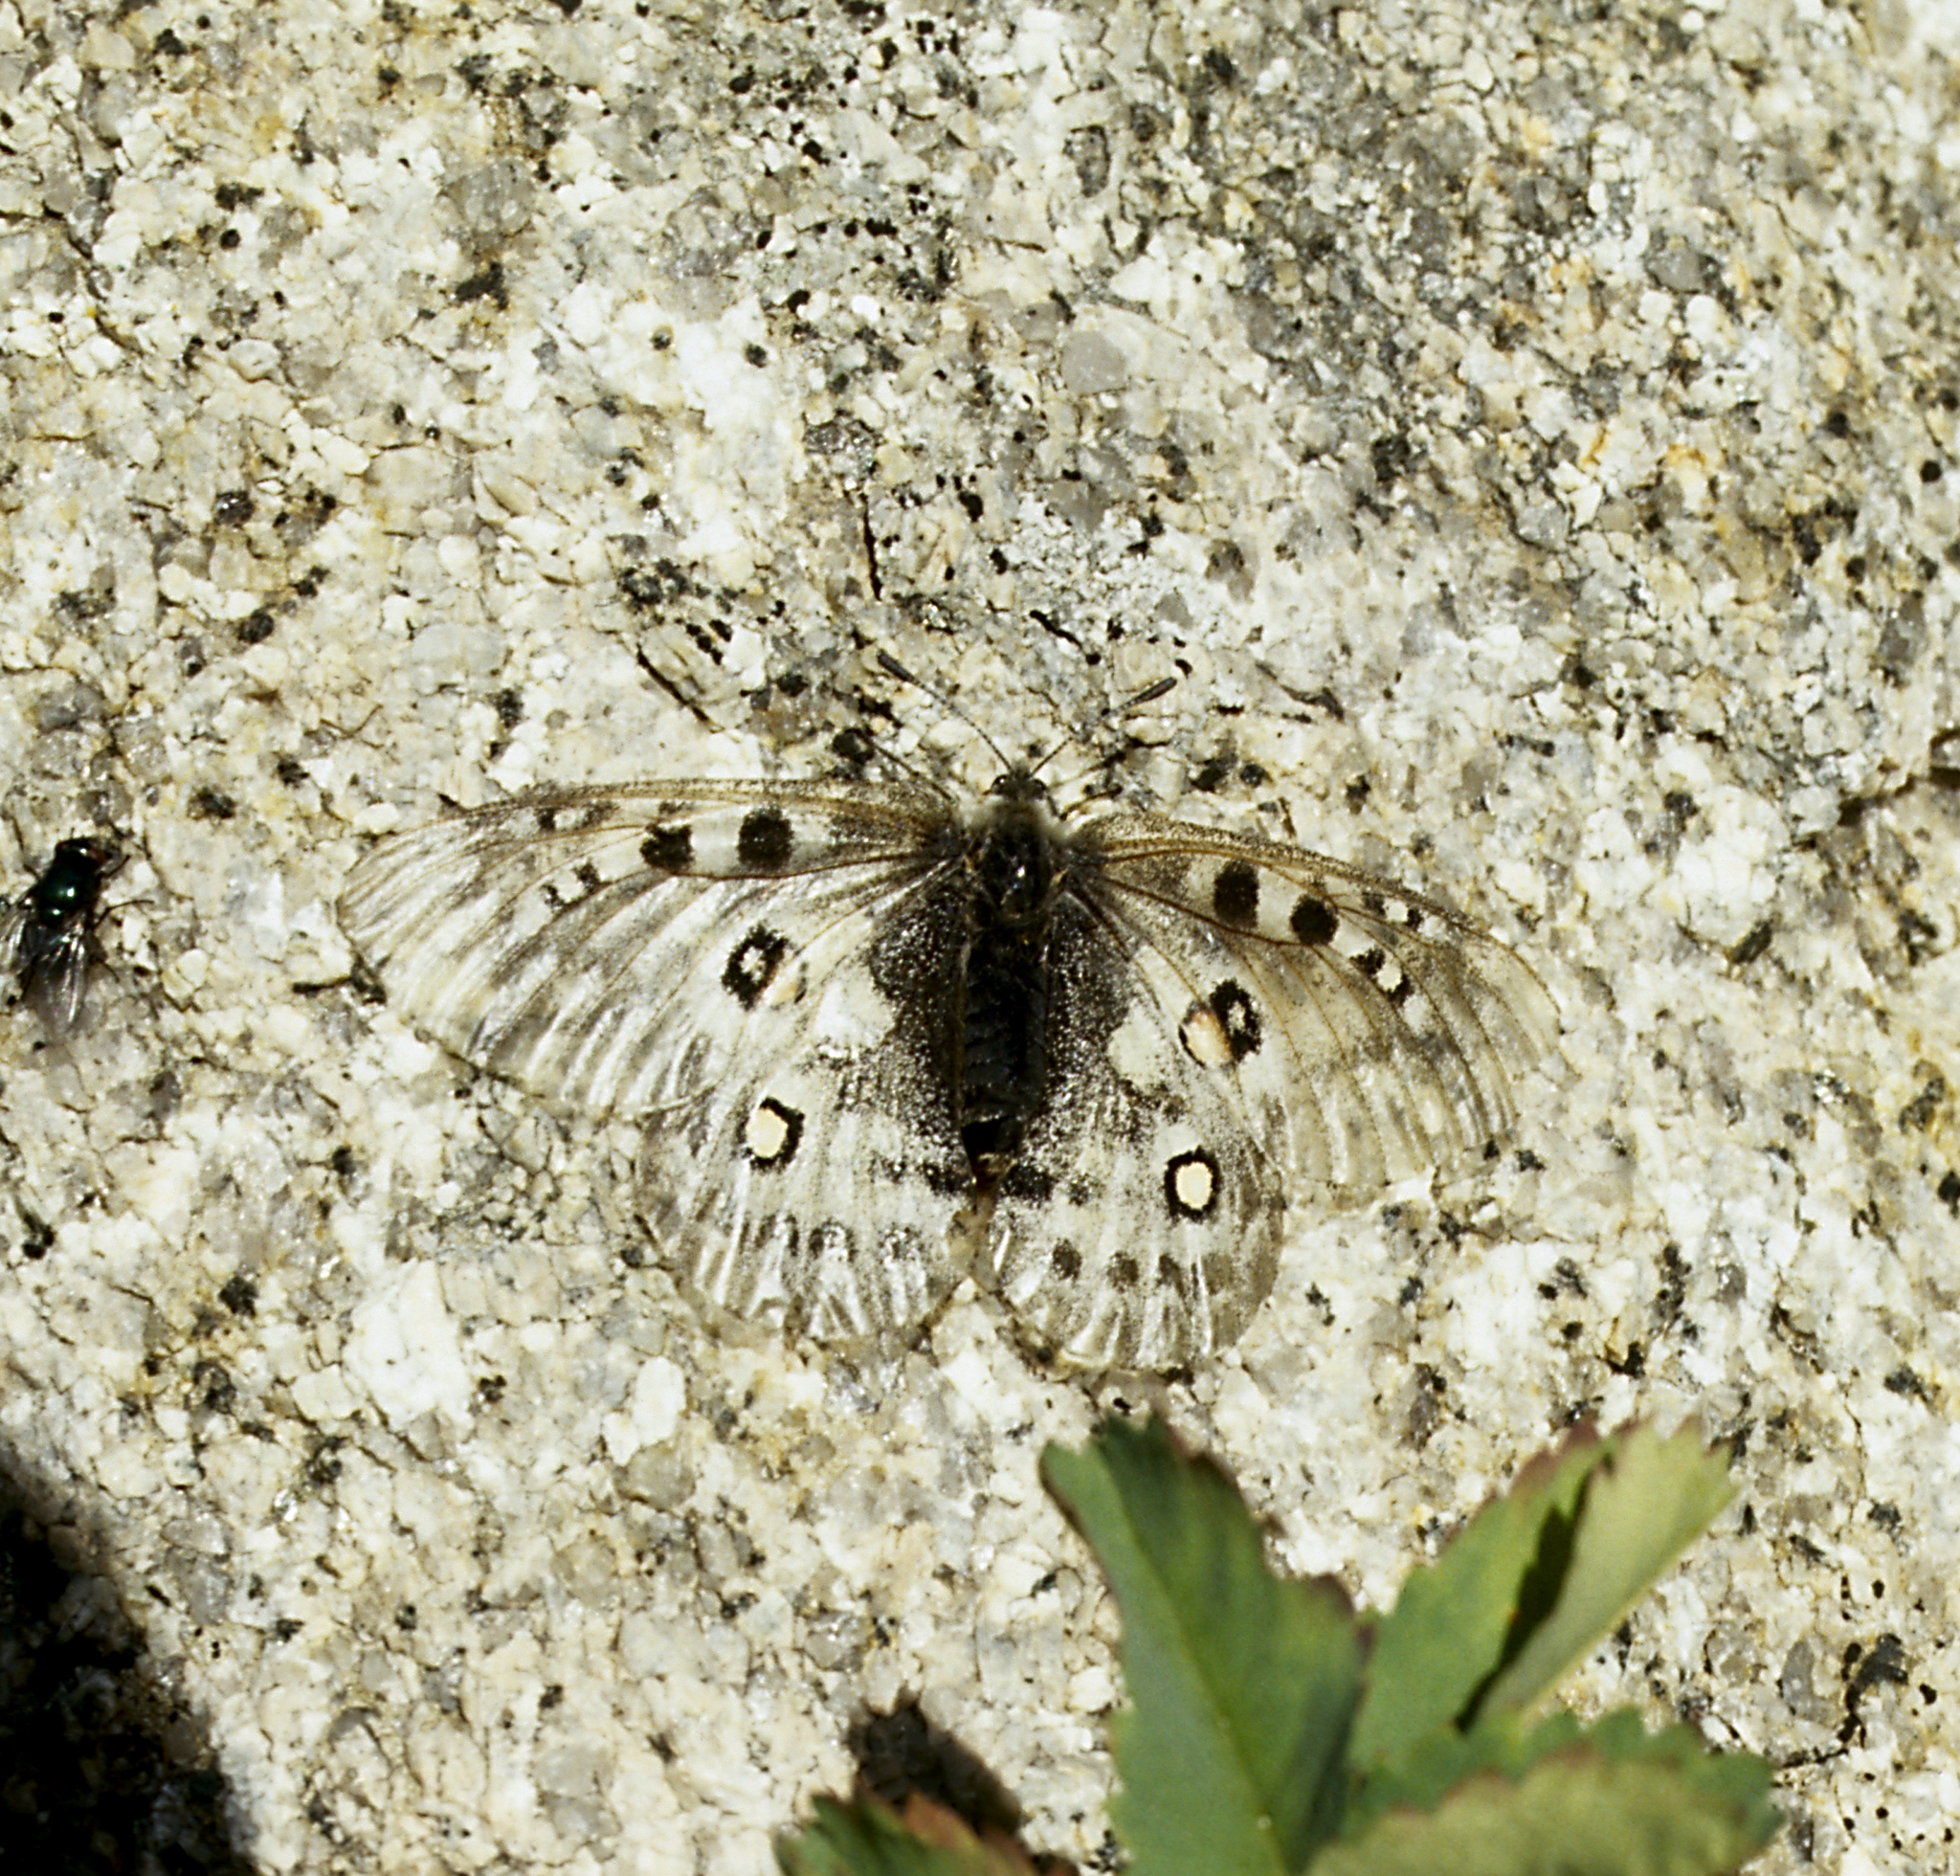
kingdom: Animalia
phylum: Arthropoda
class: Insecta
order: Lepidoptera
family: Papilionidae
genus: Parnassius
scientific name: Parnassius actius
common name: Scarce red apollo
